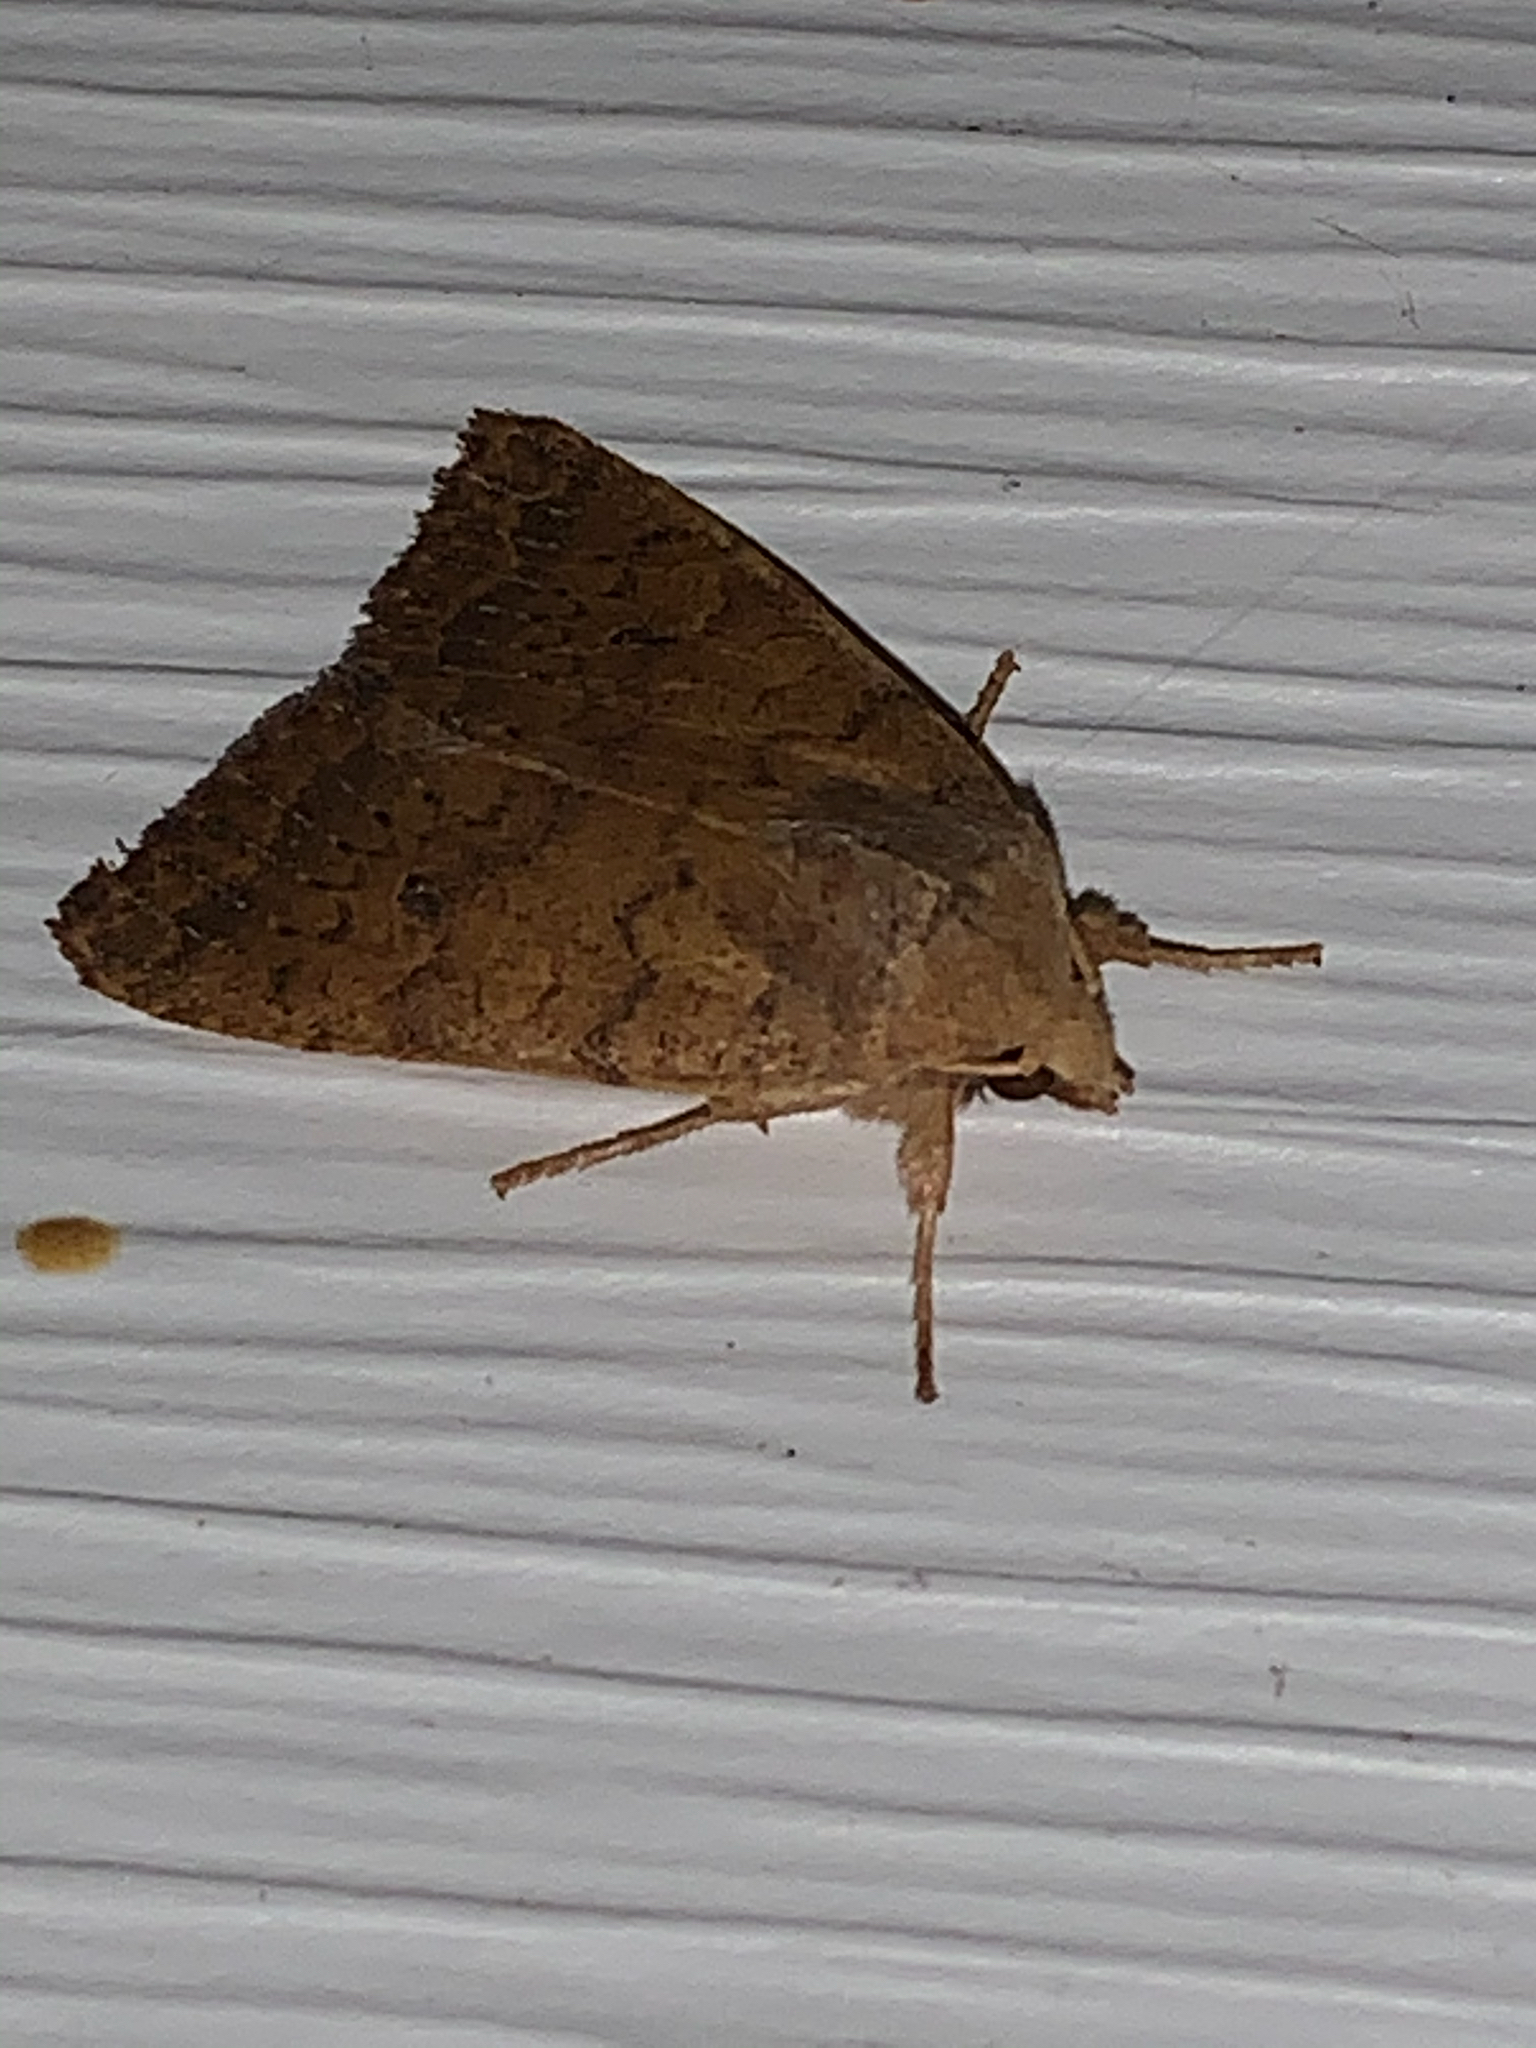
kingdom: Animalia
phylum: Arthropoda
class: Insecta
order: Lepidoptera
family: Noctuidae
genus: Agrochola
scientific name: Agrochola bicolorago
